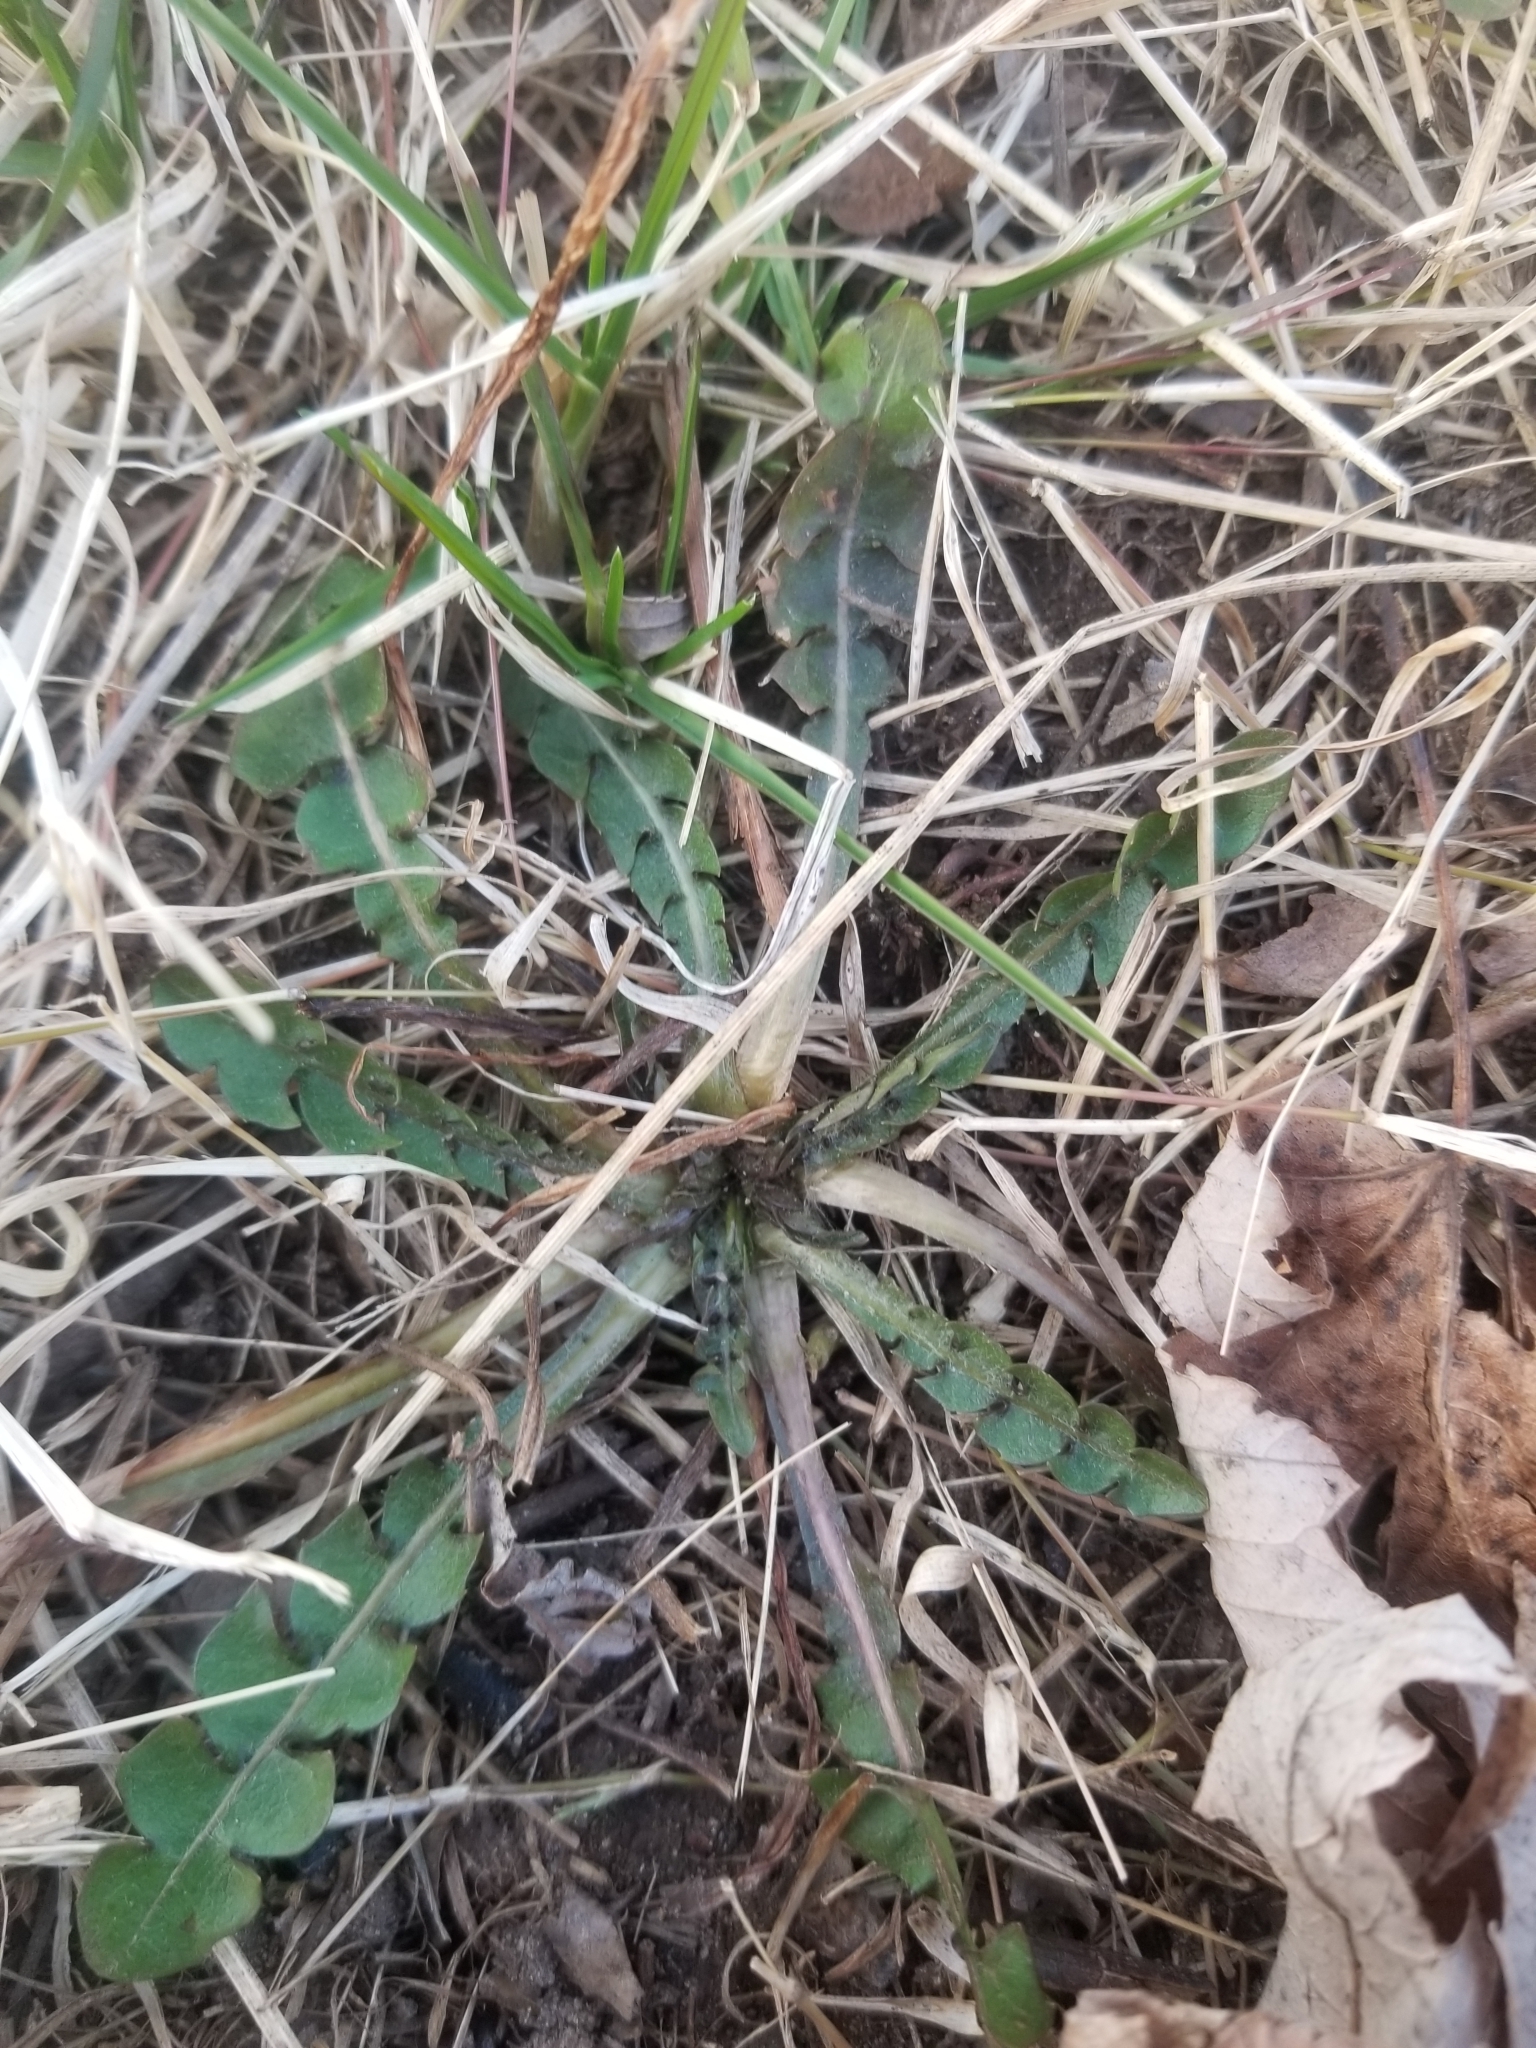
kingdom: Plantae
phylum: Tracheophyta
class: Magnoliopsida
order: Asterales
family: Asteraceae
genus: Taraxacum
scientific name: Taraxacum officinale
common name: Common dandelion
